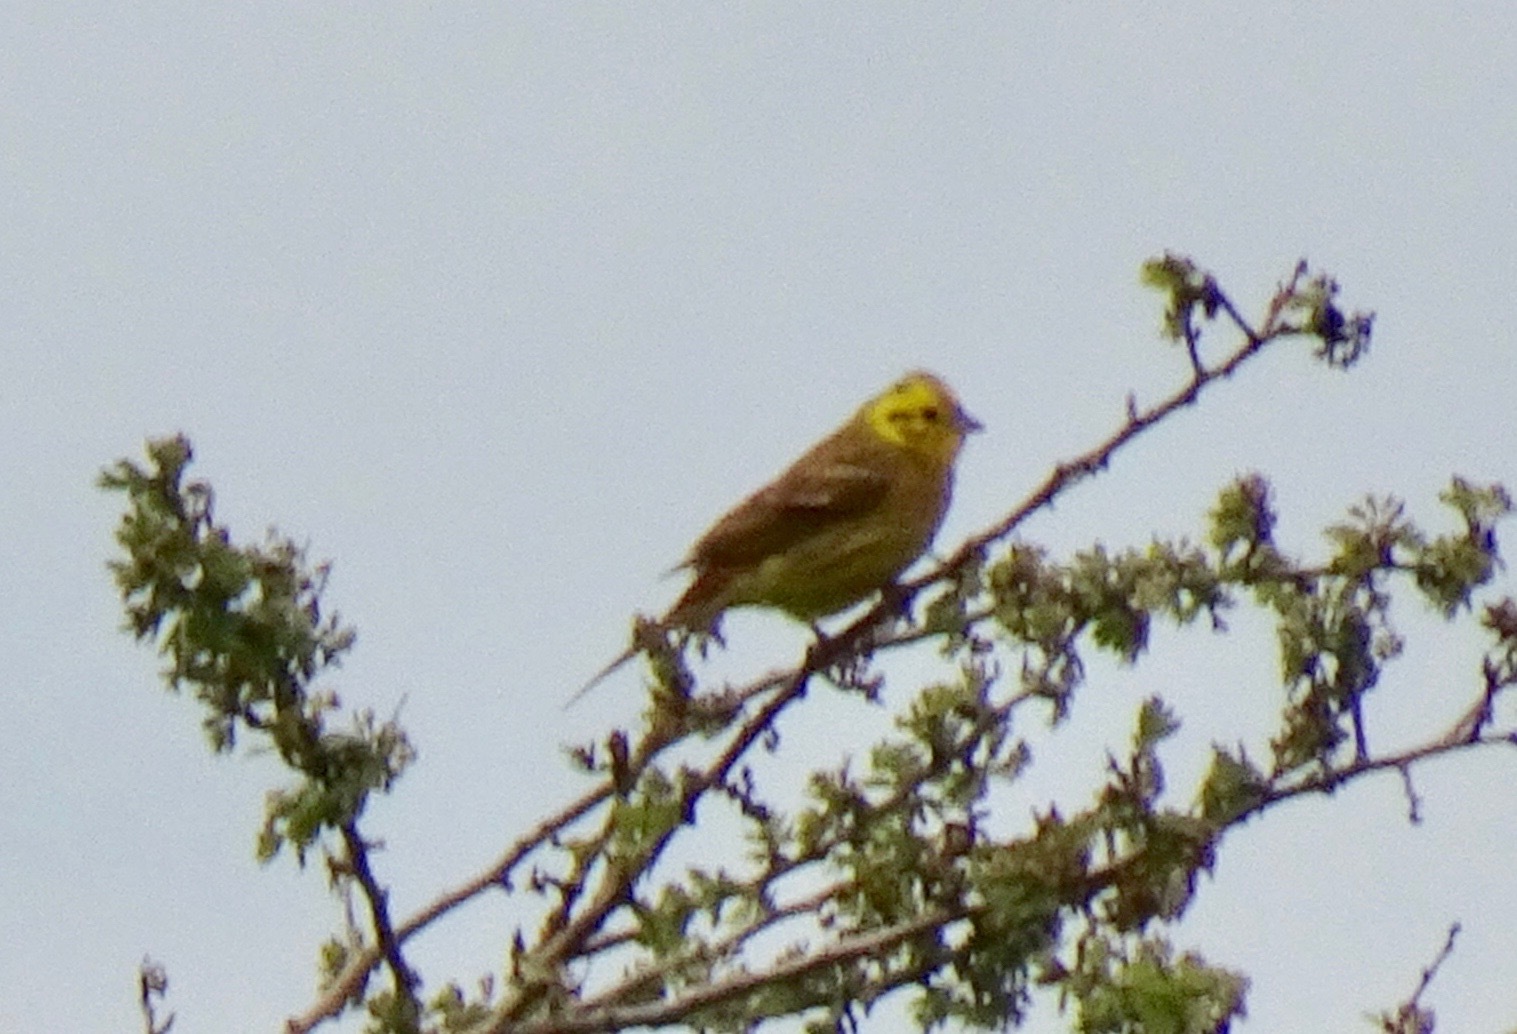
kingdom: Animalia
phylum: Chordata
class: Aves
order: Passeriformes
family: Emberizidae
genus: Emberiza
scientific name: Emberiza citrinella
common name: Yellowhammer
